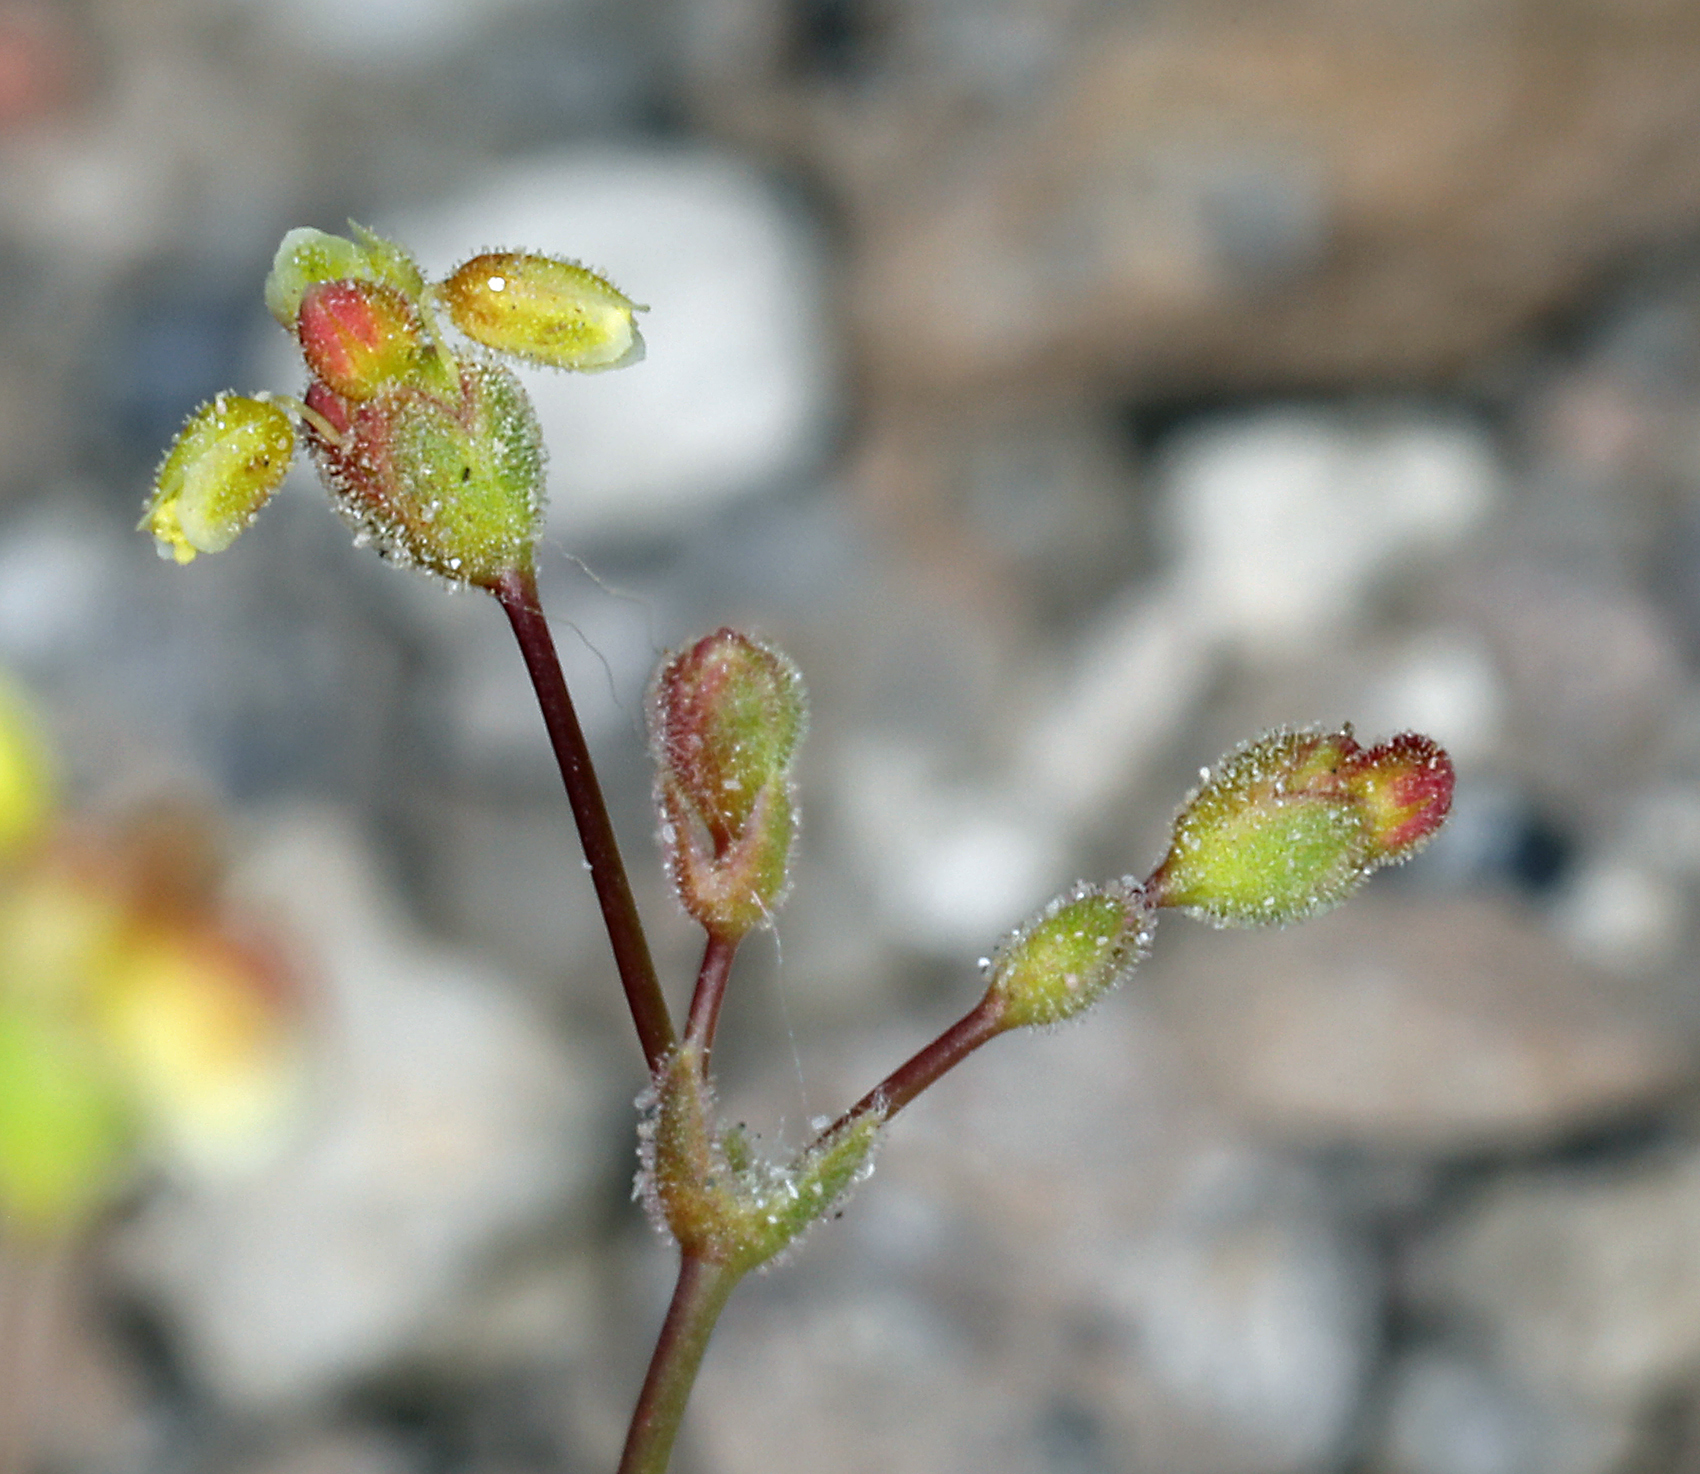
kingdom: Plantae
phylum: Tracheophyta
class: Magnoliopsida
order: Caryophyllales
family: Polygonaceae
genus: Eriogonum
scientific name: Eriogonum pusillum
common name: Yellow turbans
